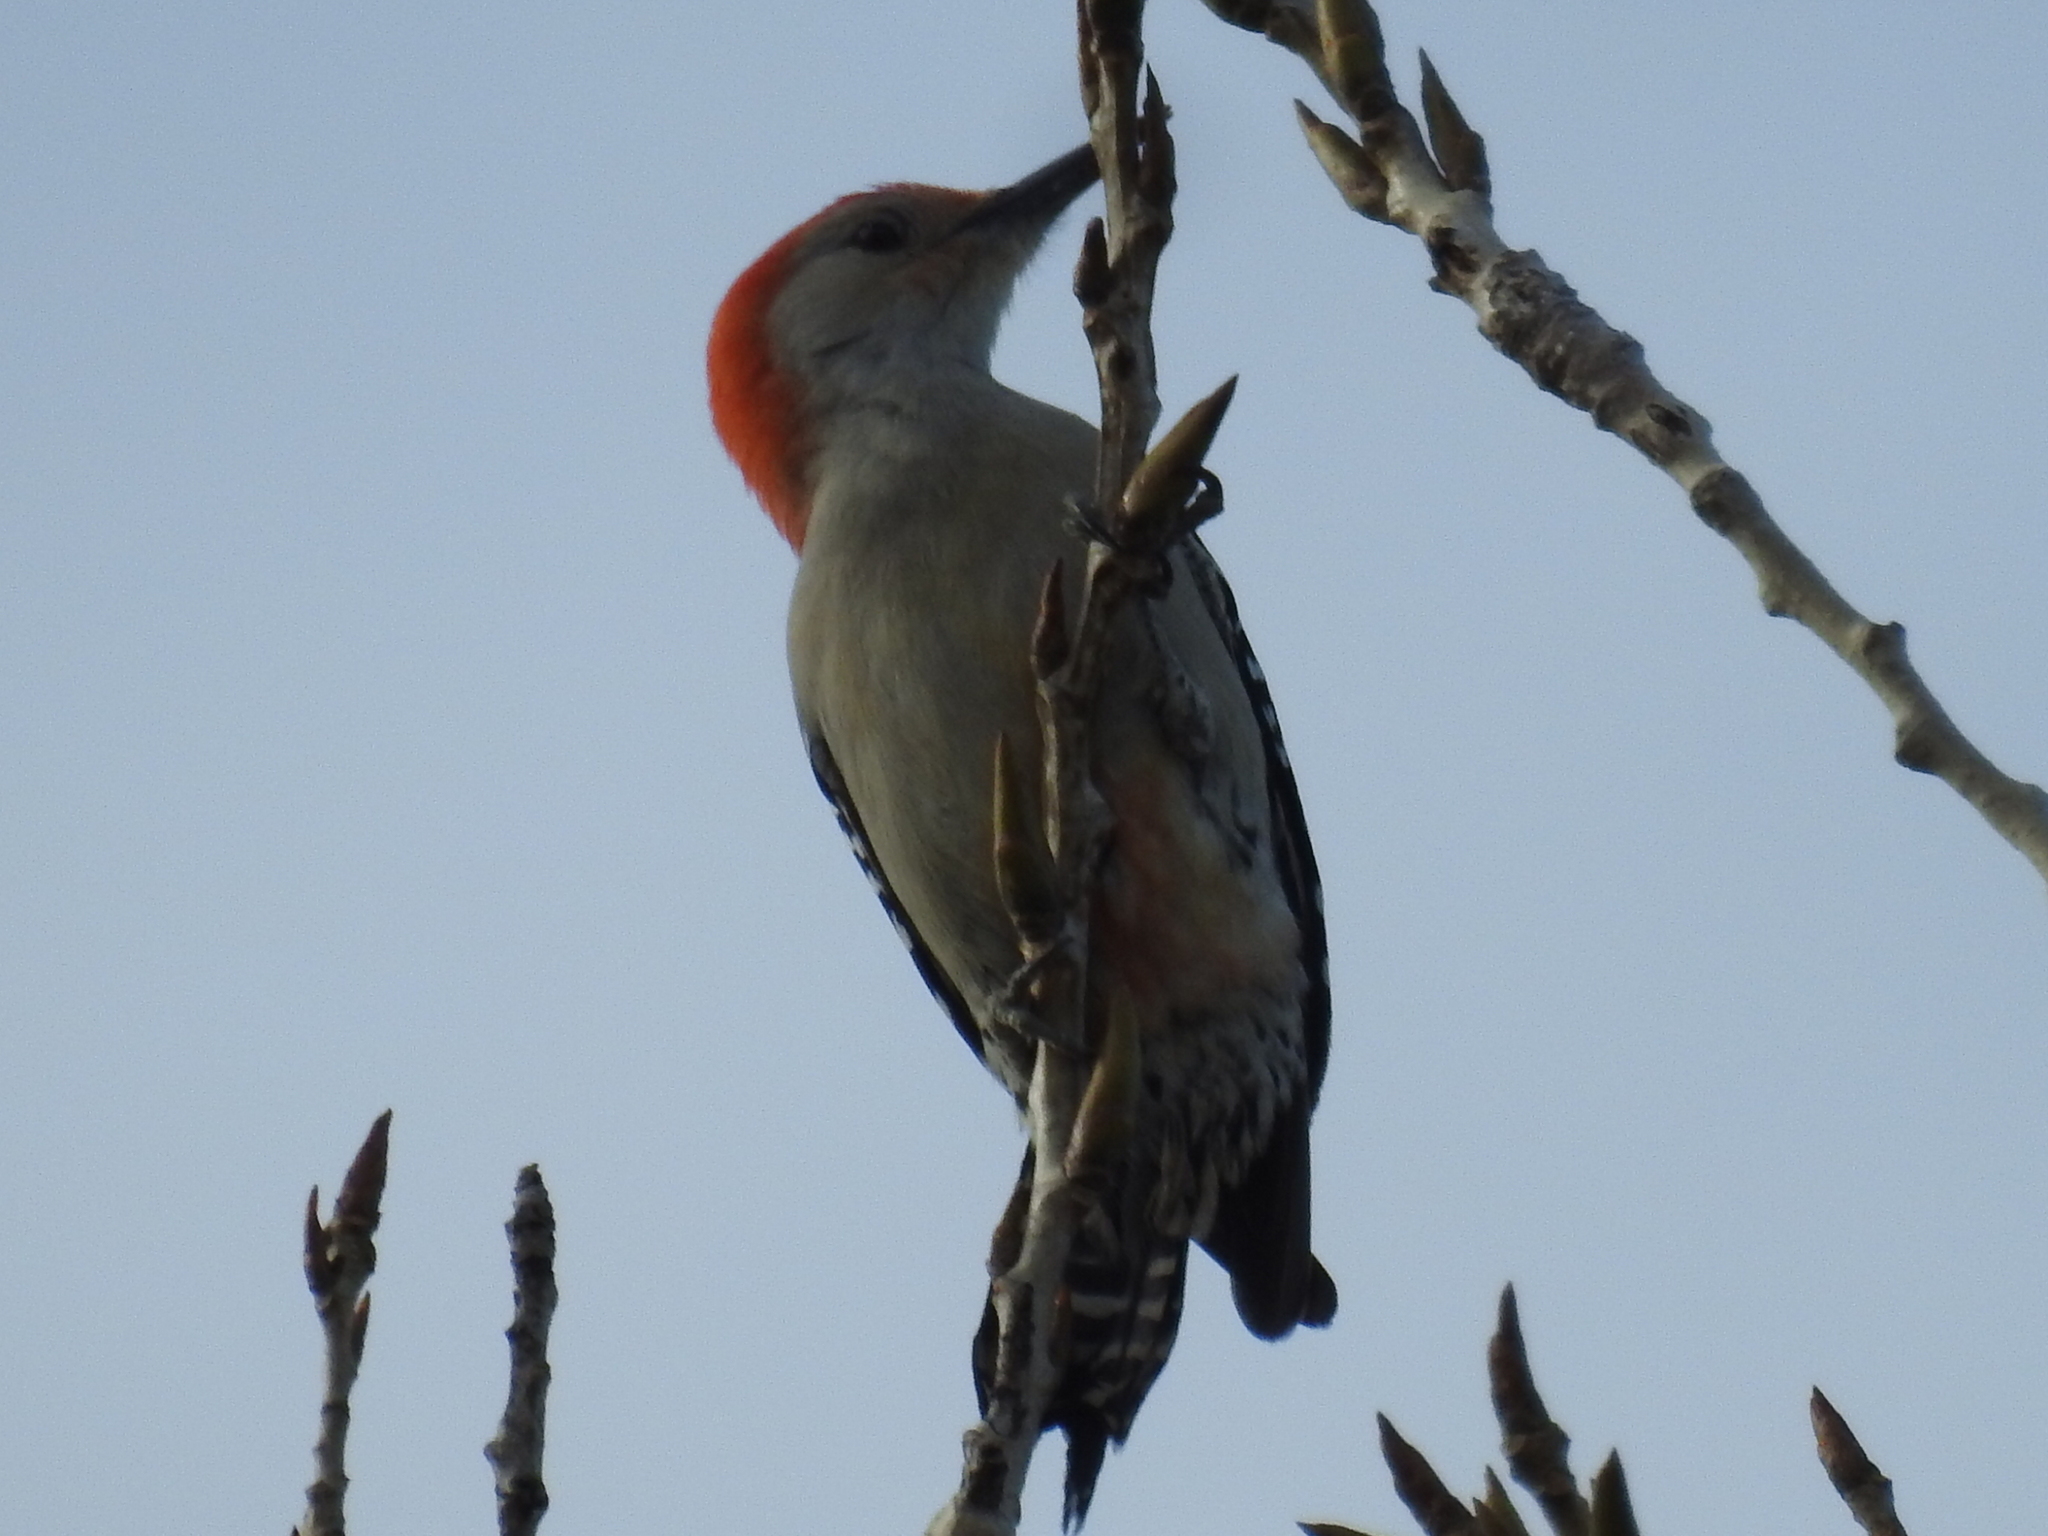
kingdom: Animalia
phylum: Chordata
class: Aves
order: Piciformes
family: Picidae
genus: Melanerpes
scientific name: Melanerpes carolinus
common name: Red-bellied woodpecker
